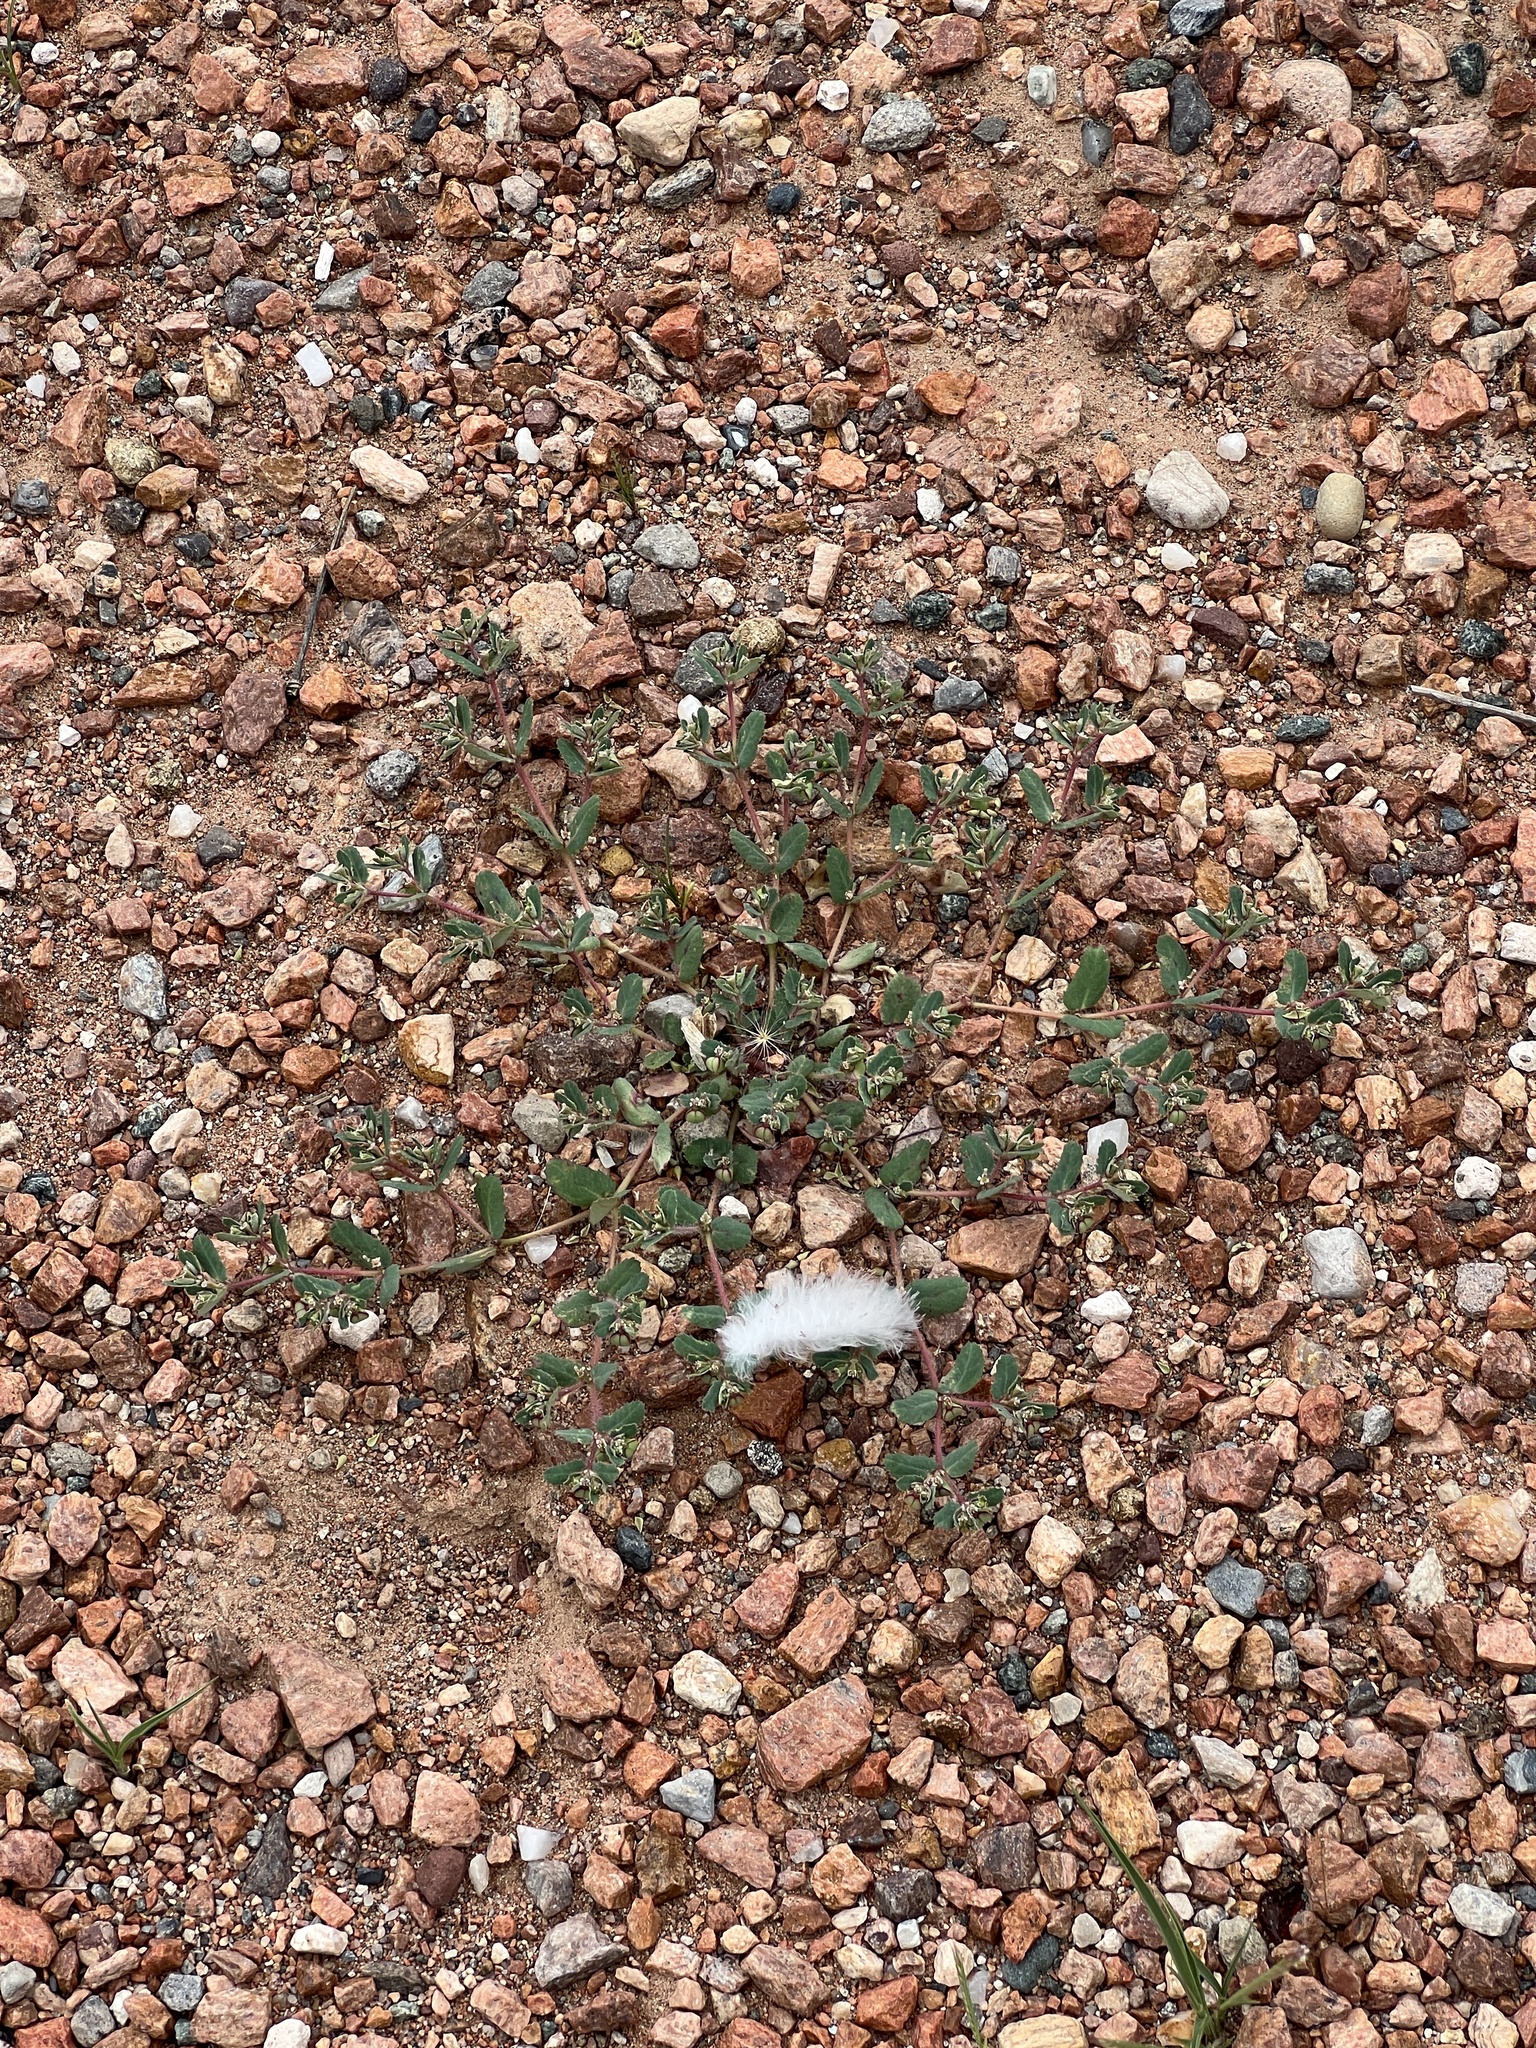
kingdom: Plantae
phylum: Tracheophyta
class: Magnoliopsida
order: Malpighiales
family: Euphorbiaceae
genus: Euphorbia
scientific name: Euphorbia serrula
